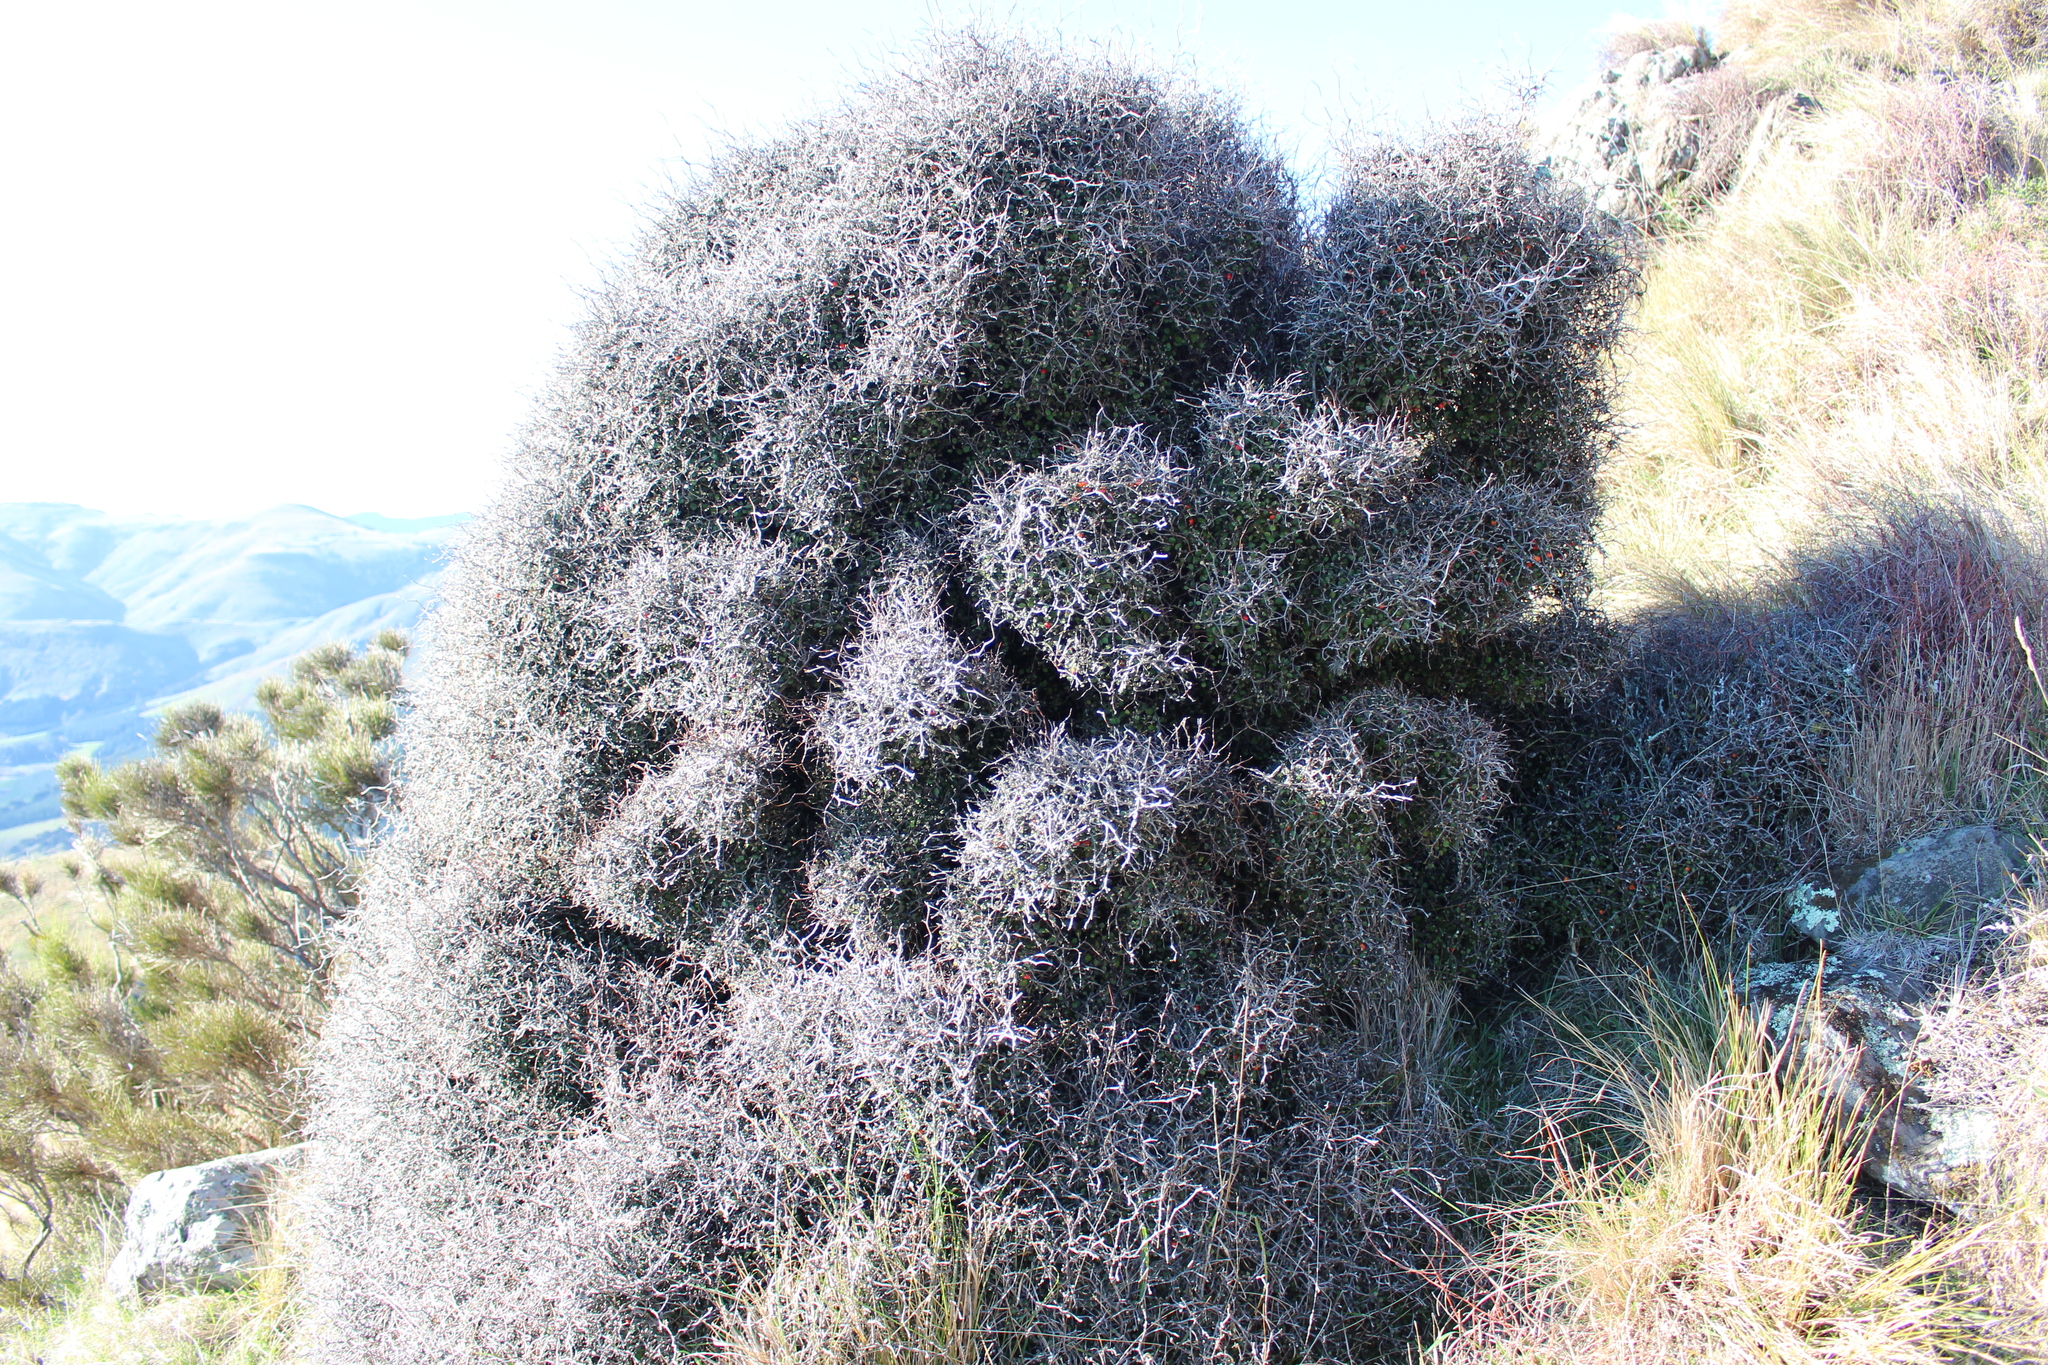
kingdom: Plantae
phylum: Tracheophyta
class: Magnoliopsida
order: Asterales
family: Argophyllaceae
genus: Corokia
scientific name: Corokia cotoneaster
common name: Wire nettingbush
